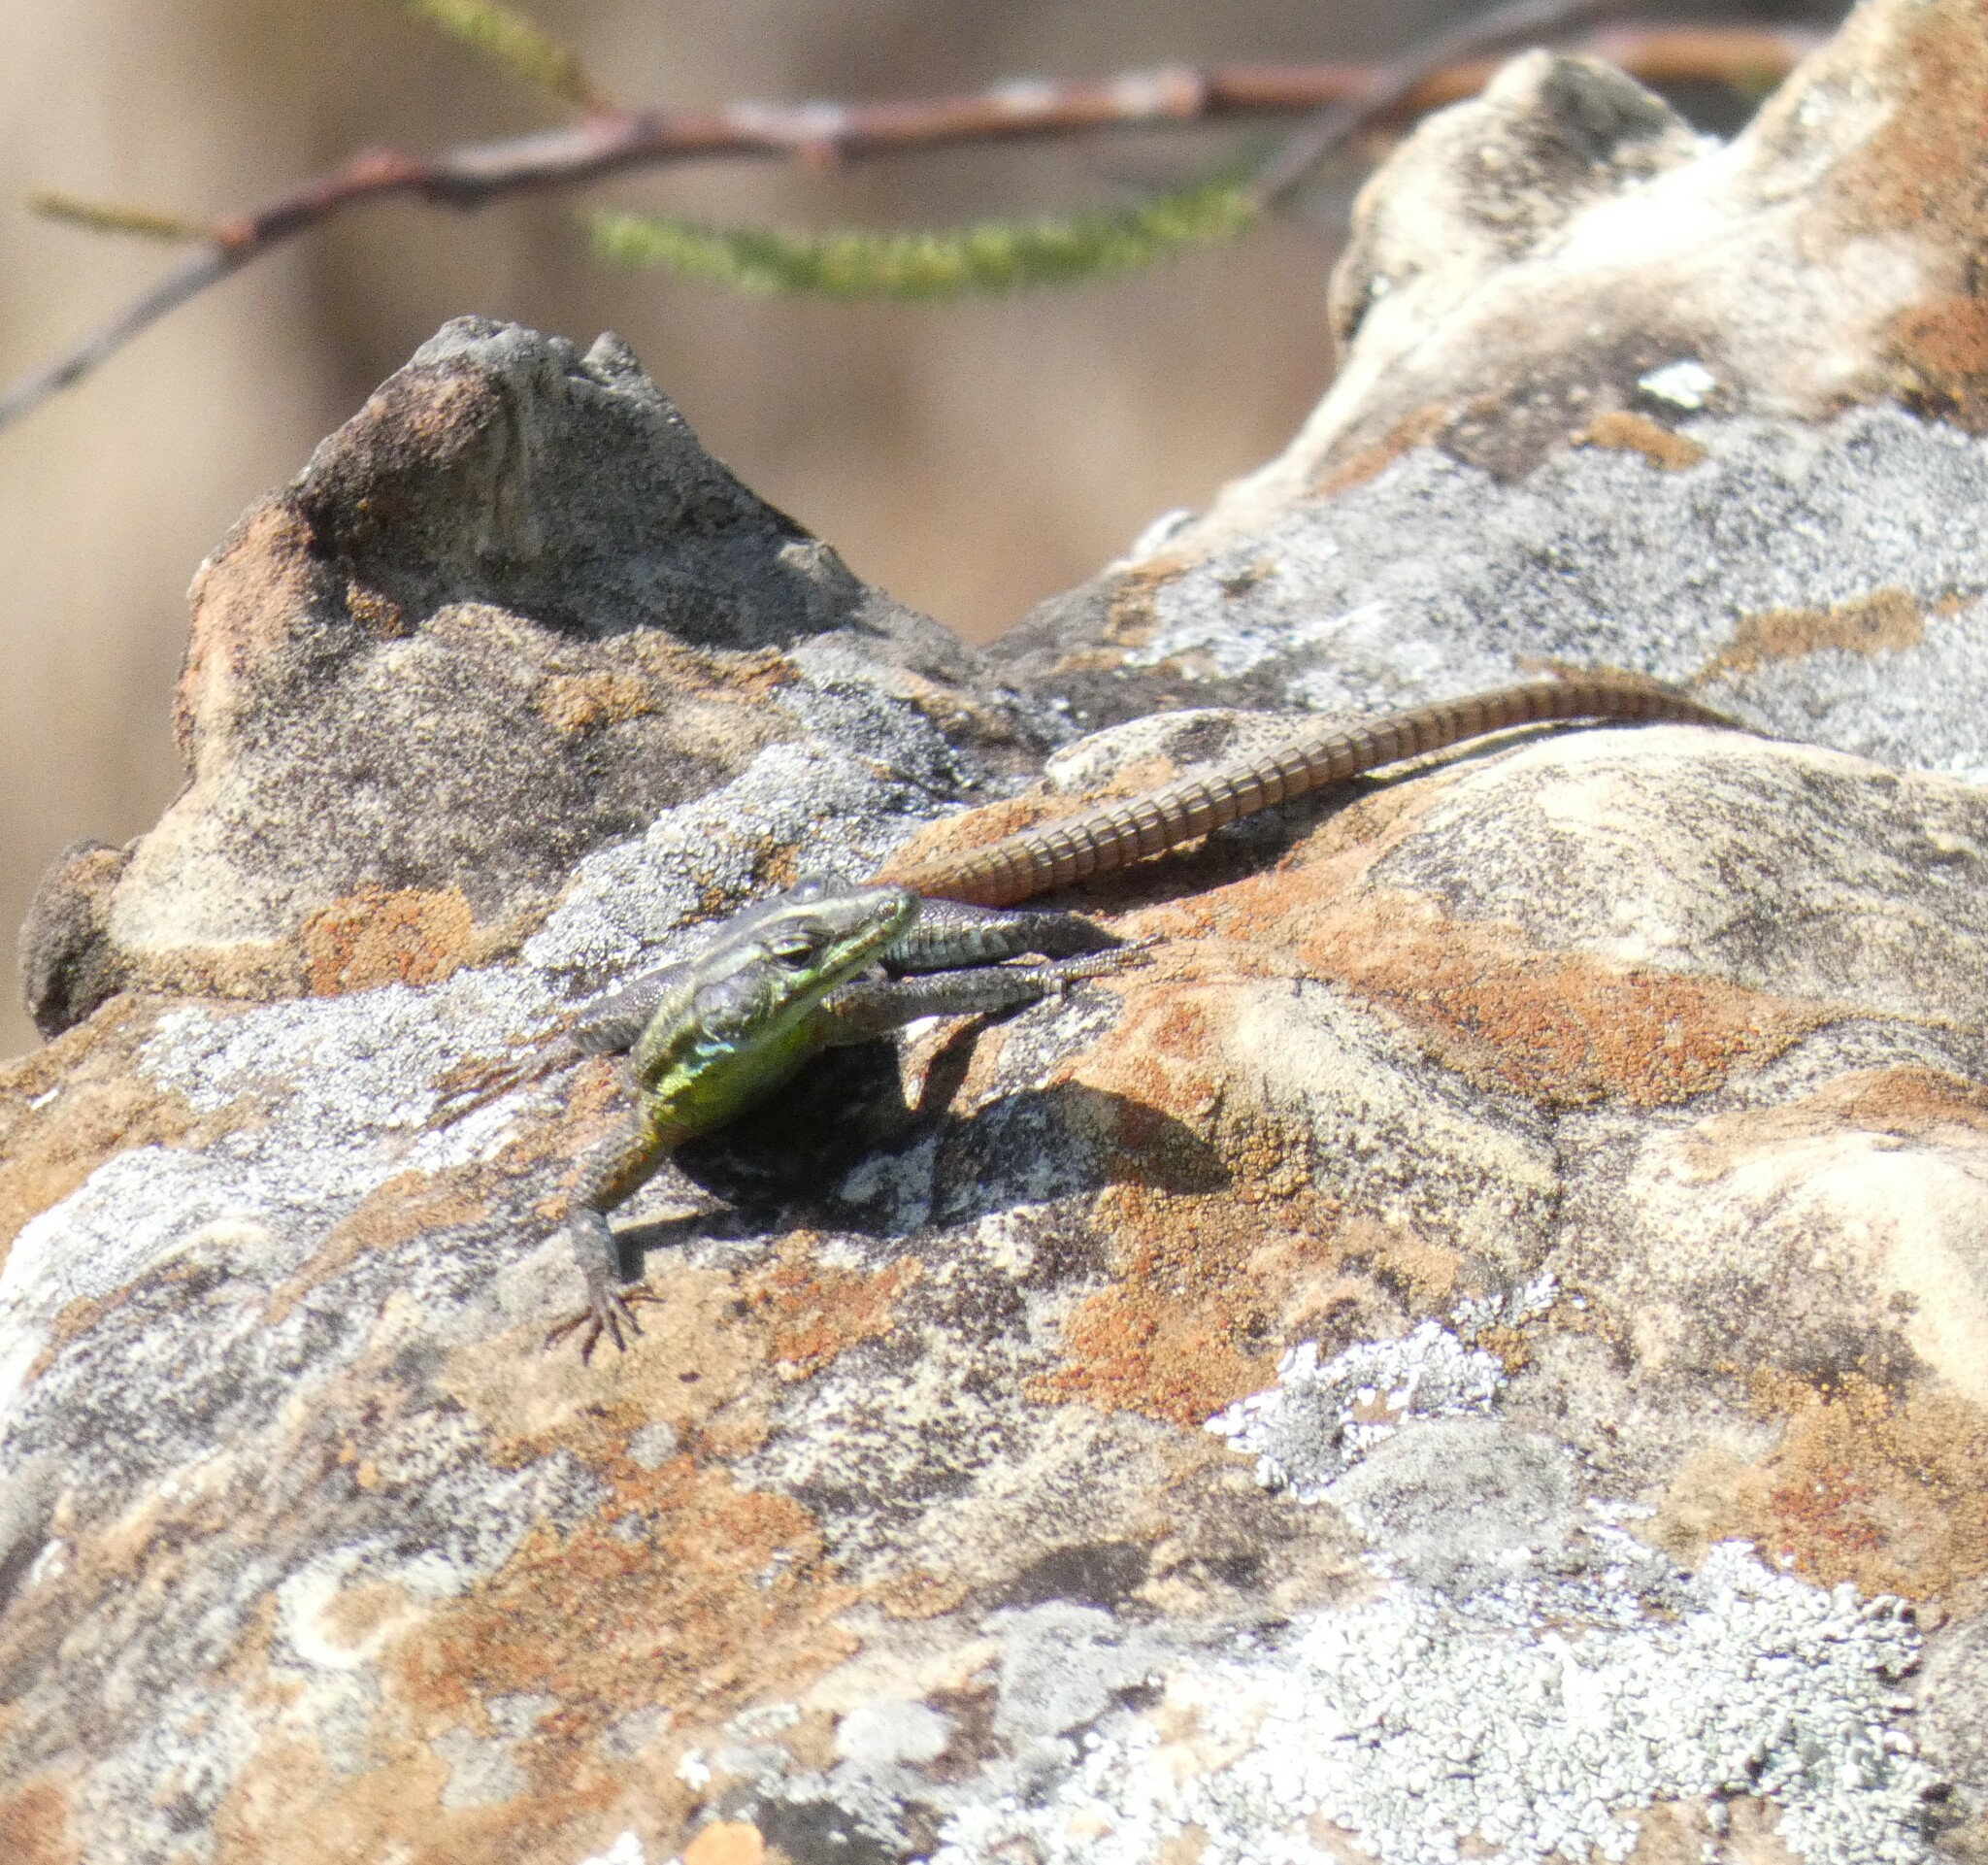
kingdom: Animalia
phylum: Chordata
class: Squamata
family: Cordylidae
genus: Platysaurus
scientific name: Platysaurus intermedius
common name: Common flat lizard
